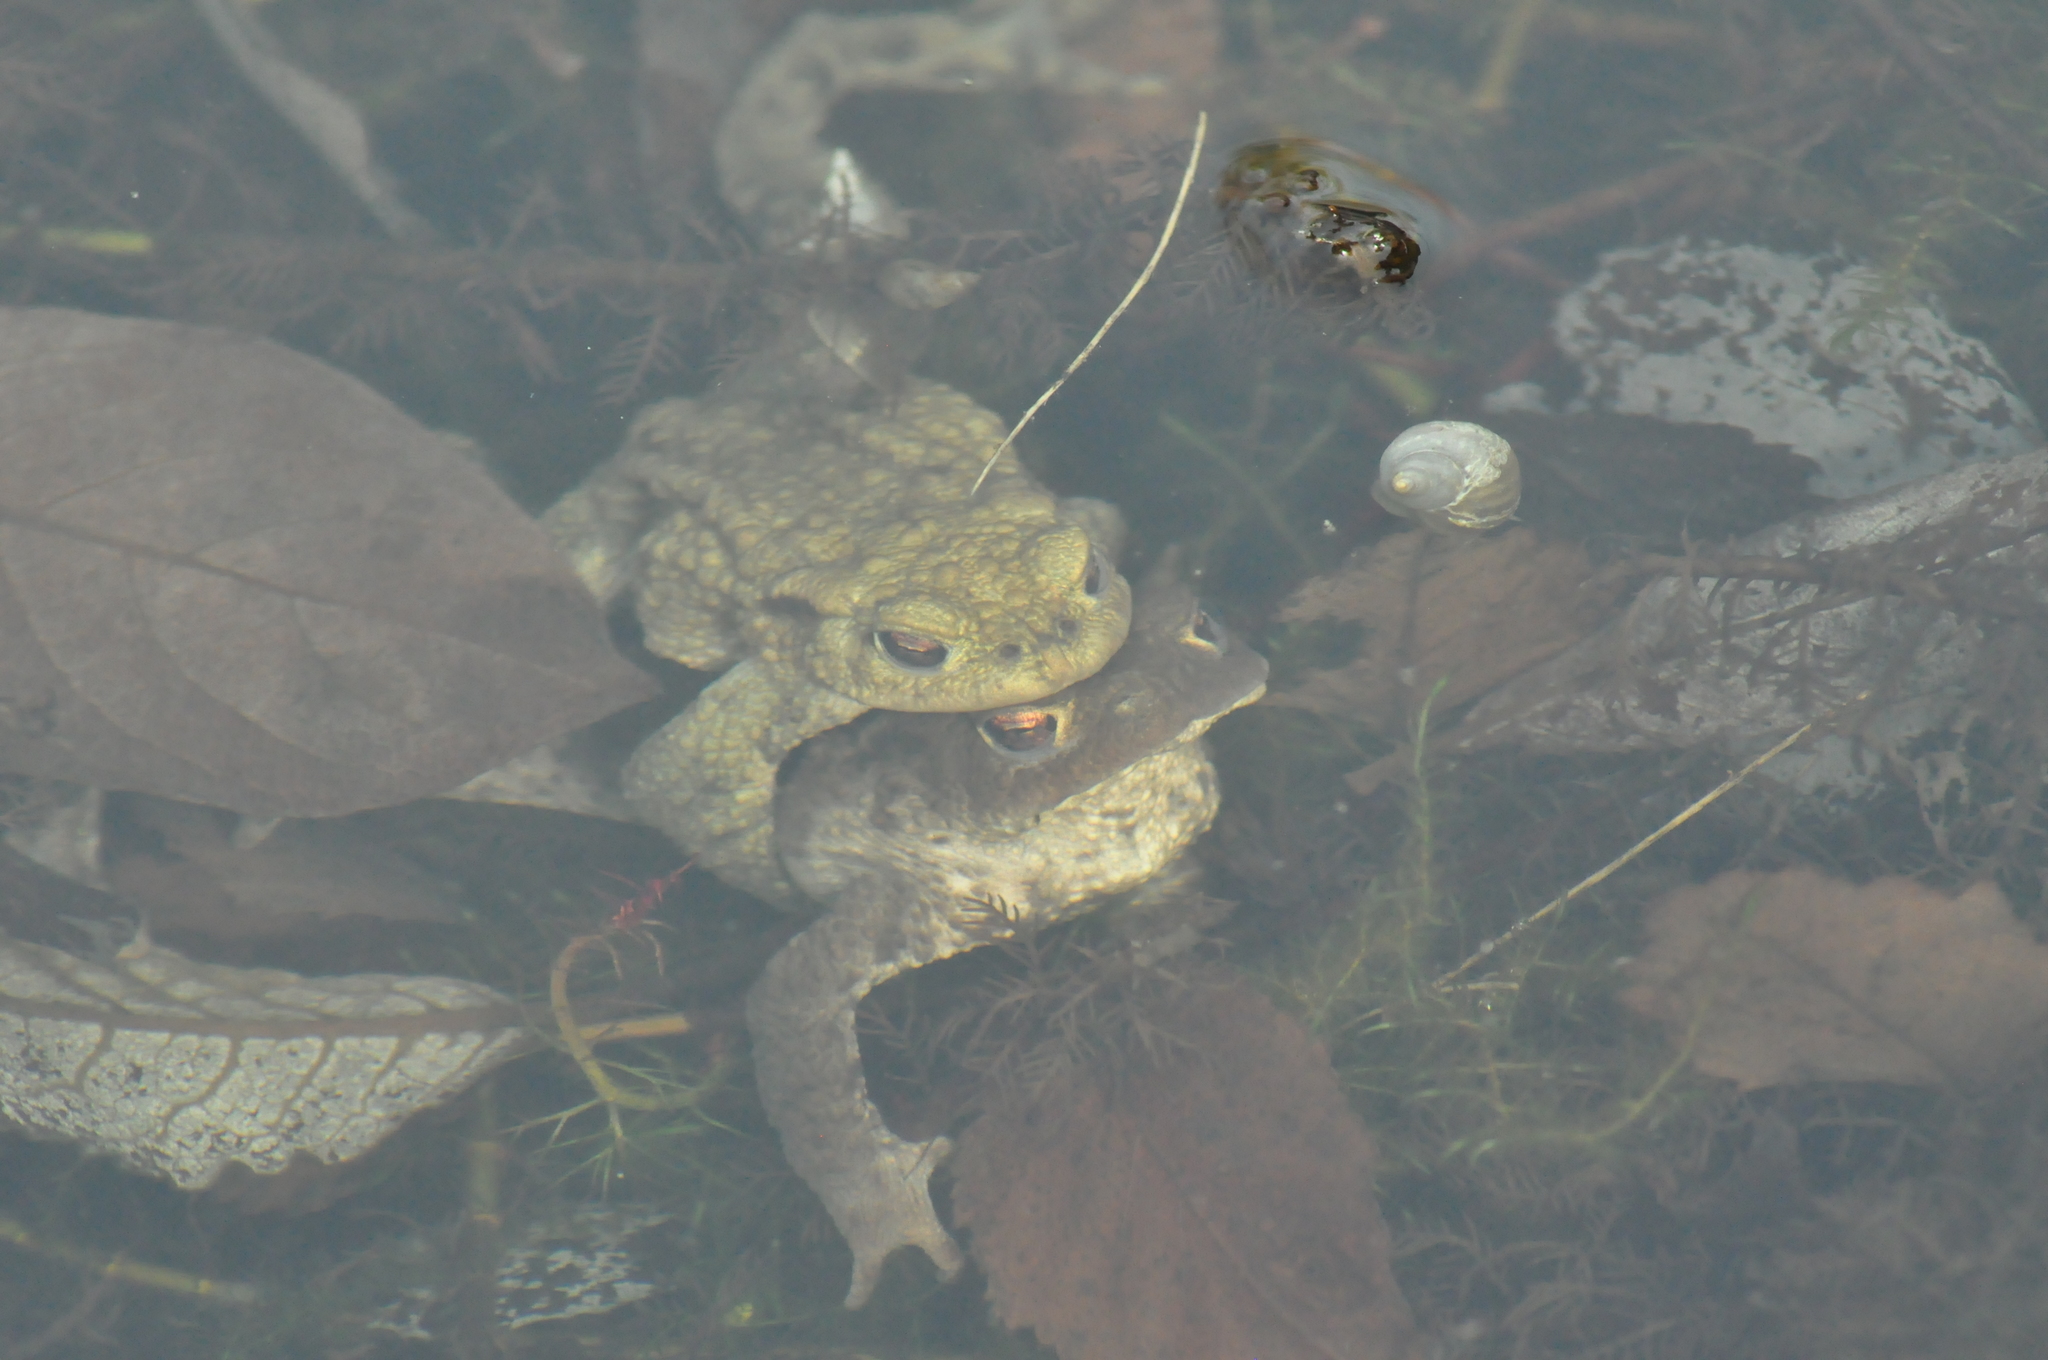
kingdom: Animalia
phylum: Chordata
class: Amphibia
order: Anura
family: Bufonidae
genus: Bufo
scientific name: Bufo bufo
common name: Common toad
